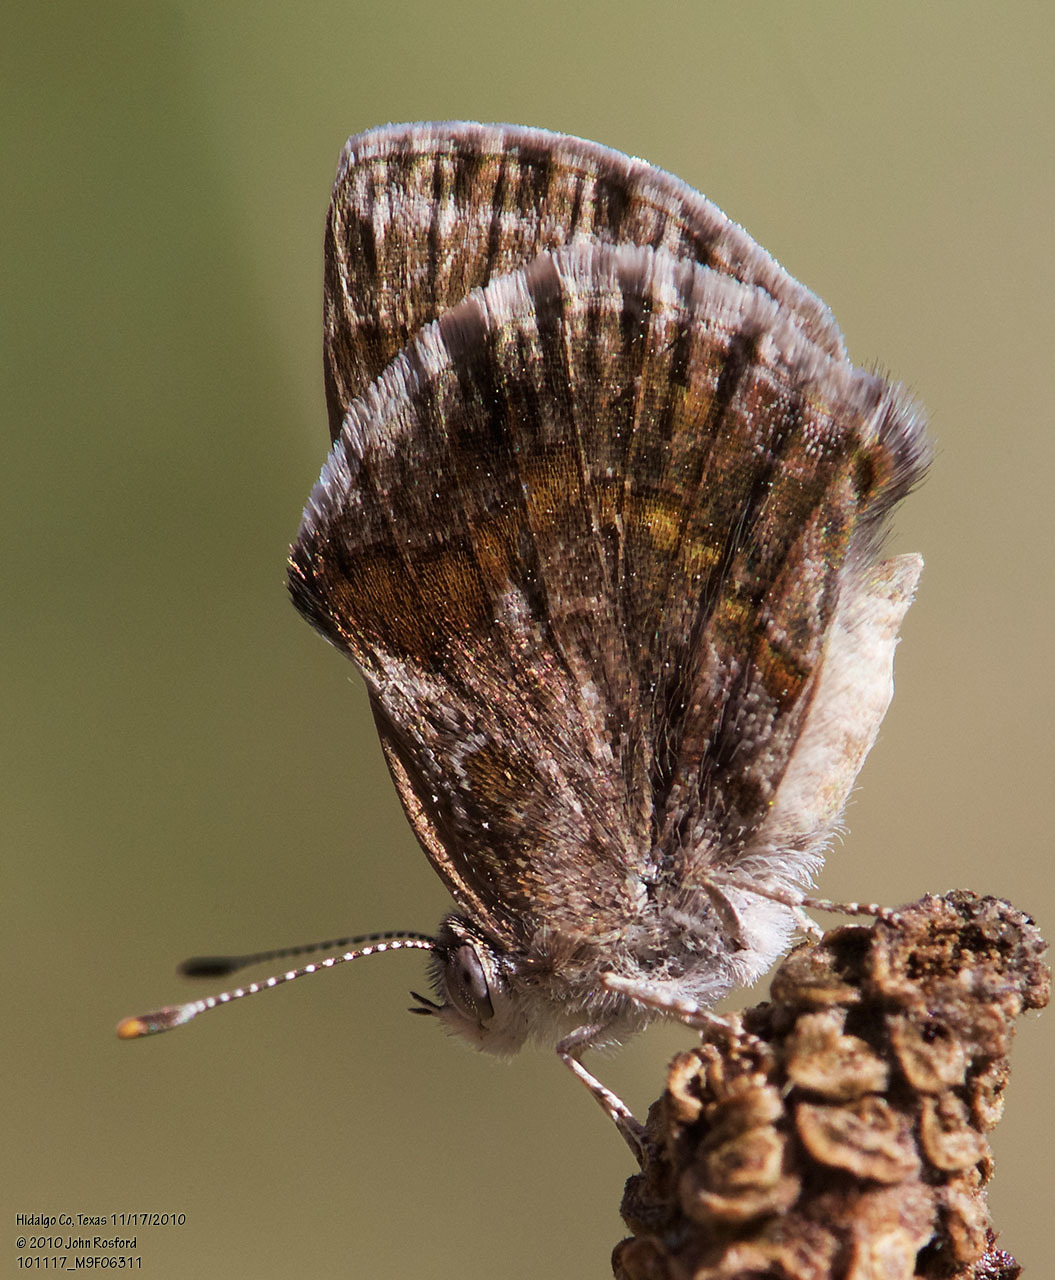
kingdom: Animalia
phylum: Arthropoda
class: Insecta
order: Lepidoptera
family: Lycaenidae
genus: Strymon
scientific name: Strymon bazochii
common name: Lantana scrub-hairstreak
